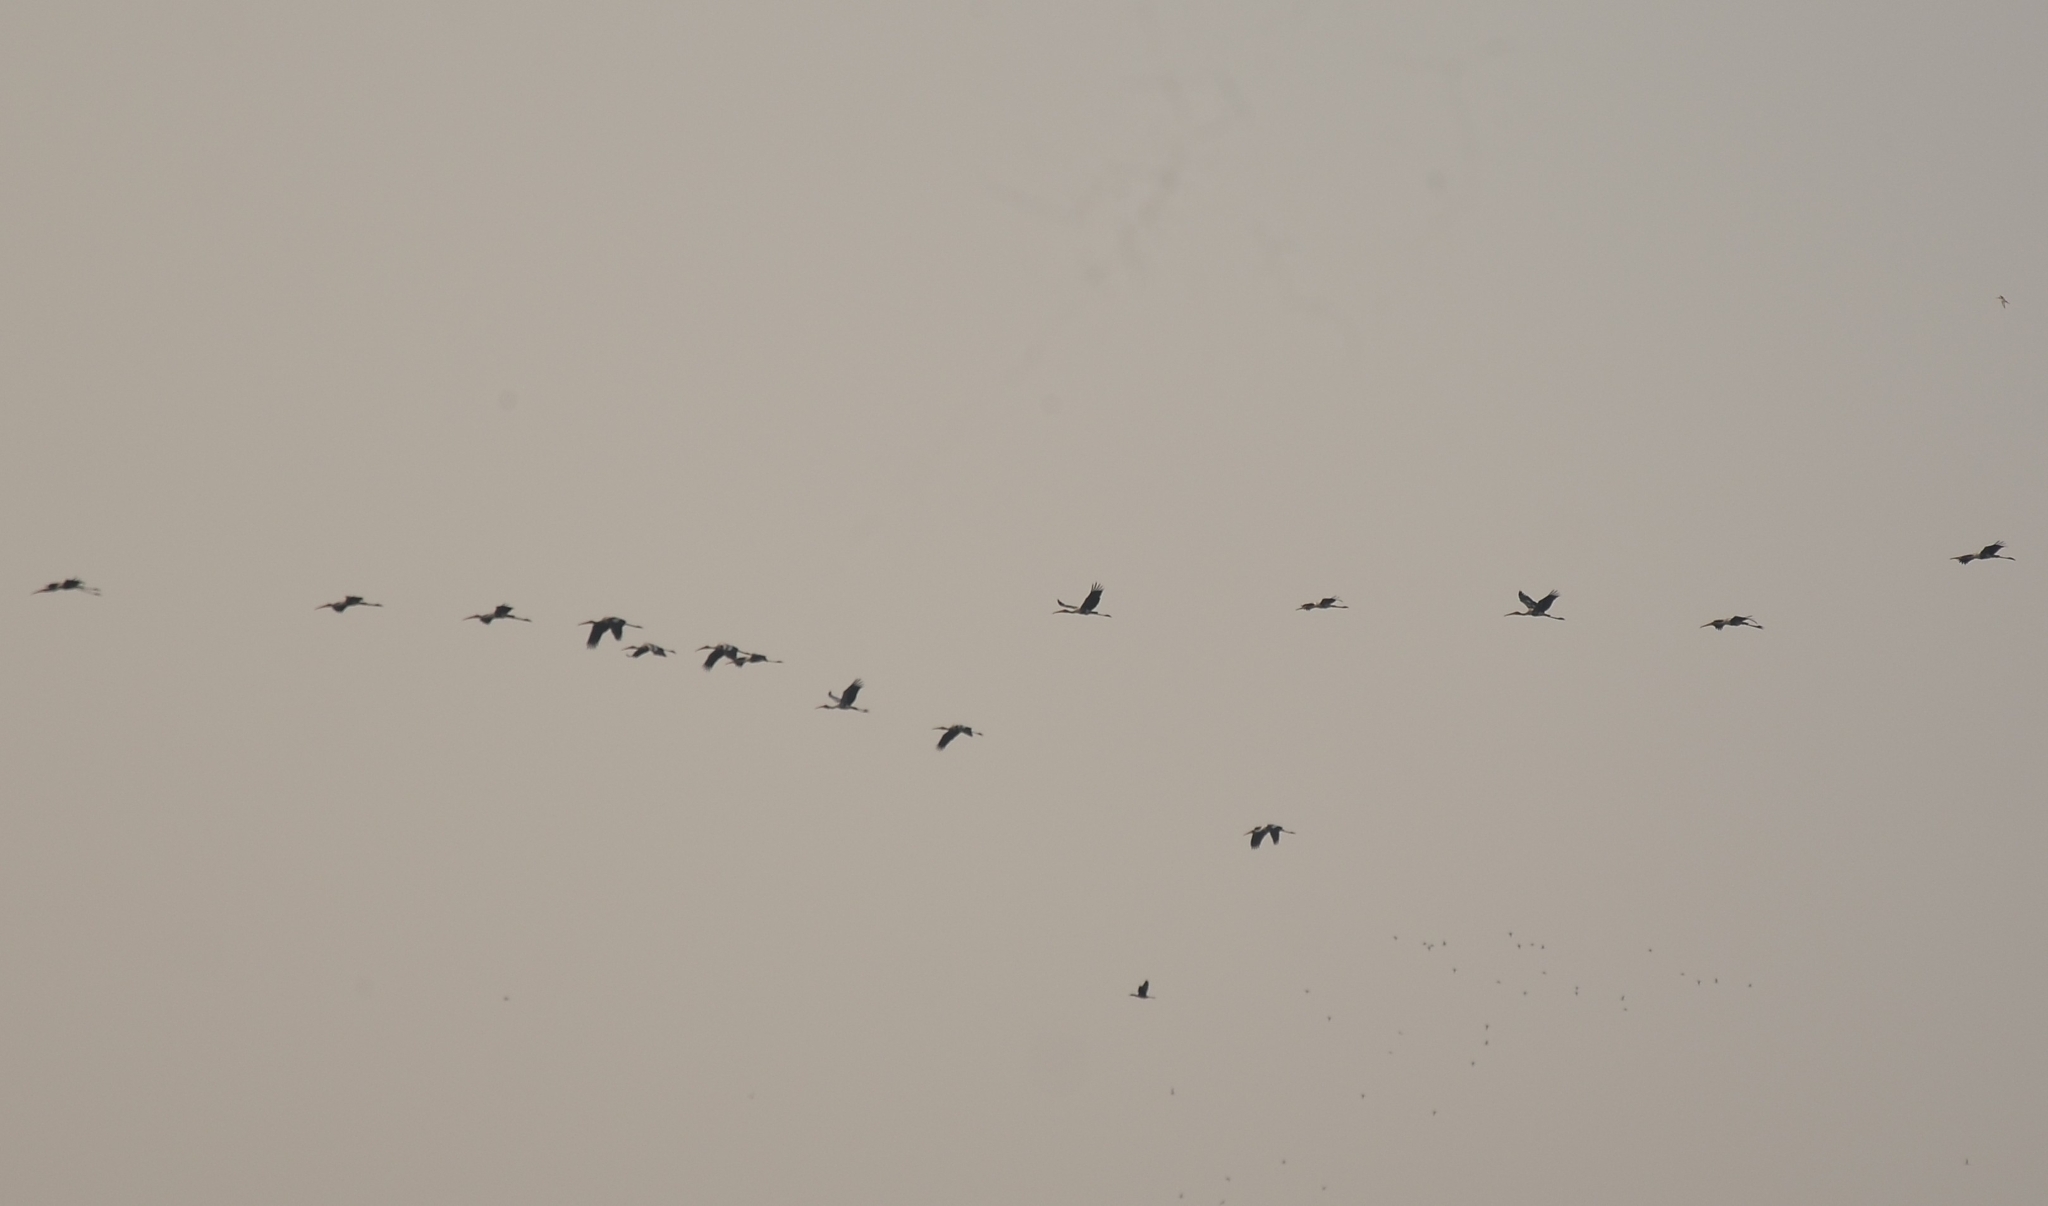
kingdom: Animalia
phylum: Chordata
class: Aves
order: Ciconiiformes
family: Ciconiidae
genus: Mycteria
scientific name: Mycteria leucocephala
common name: Painted stork
